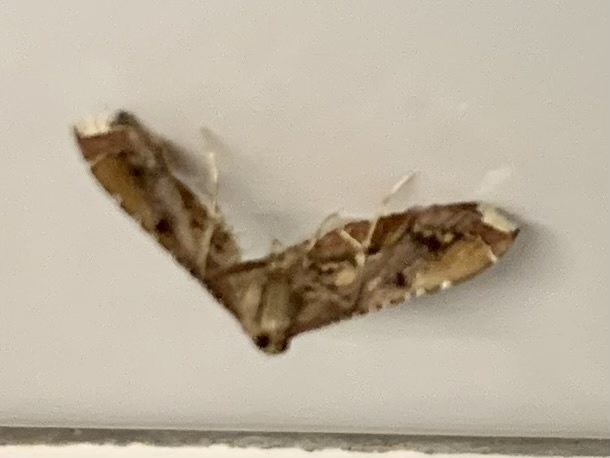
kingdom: Animalia
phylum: Arthropoda
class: Insecta
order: Lepidoptera
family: Pyralidae
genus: Endotricha
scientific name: Endotricha flammealis
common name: Rosy tabby
